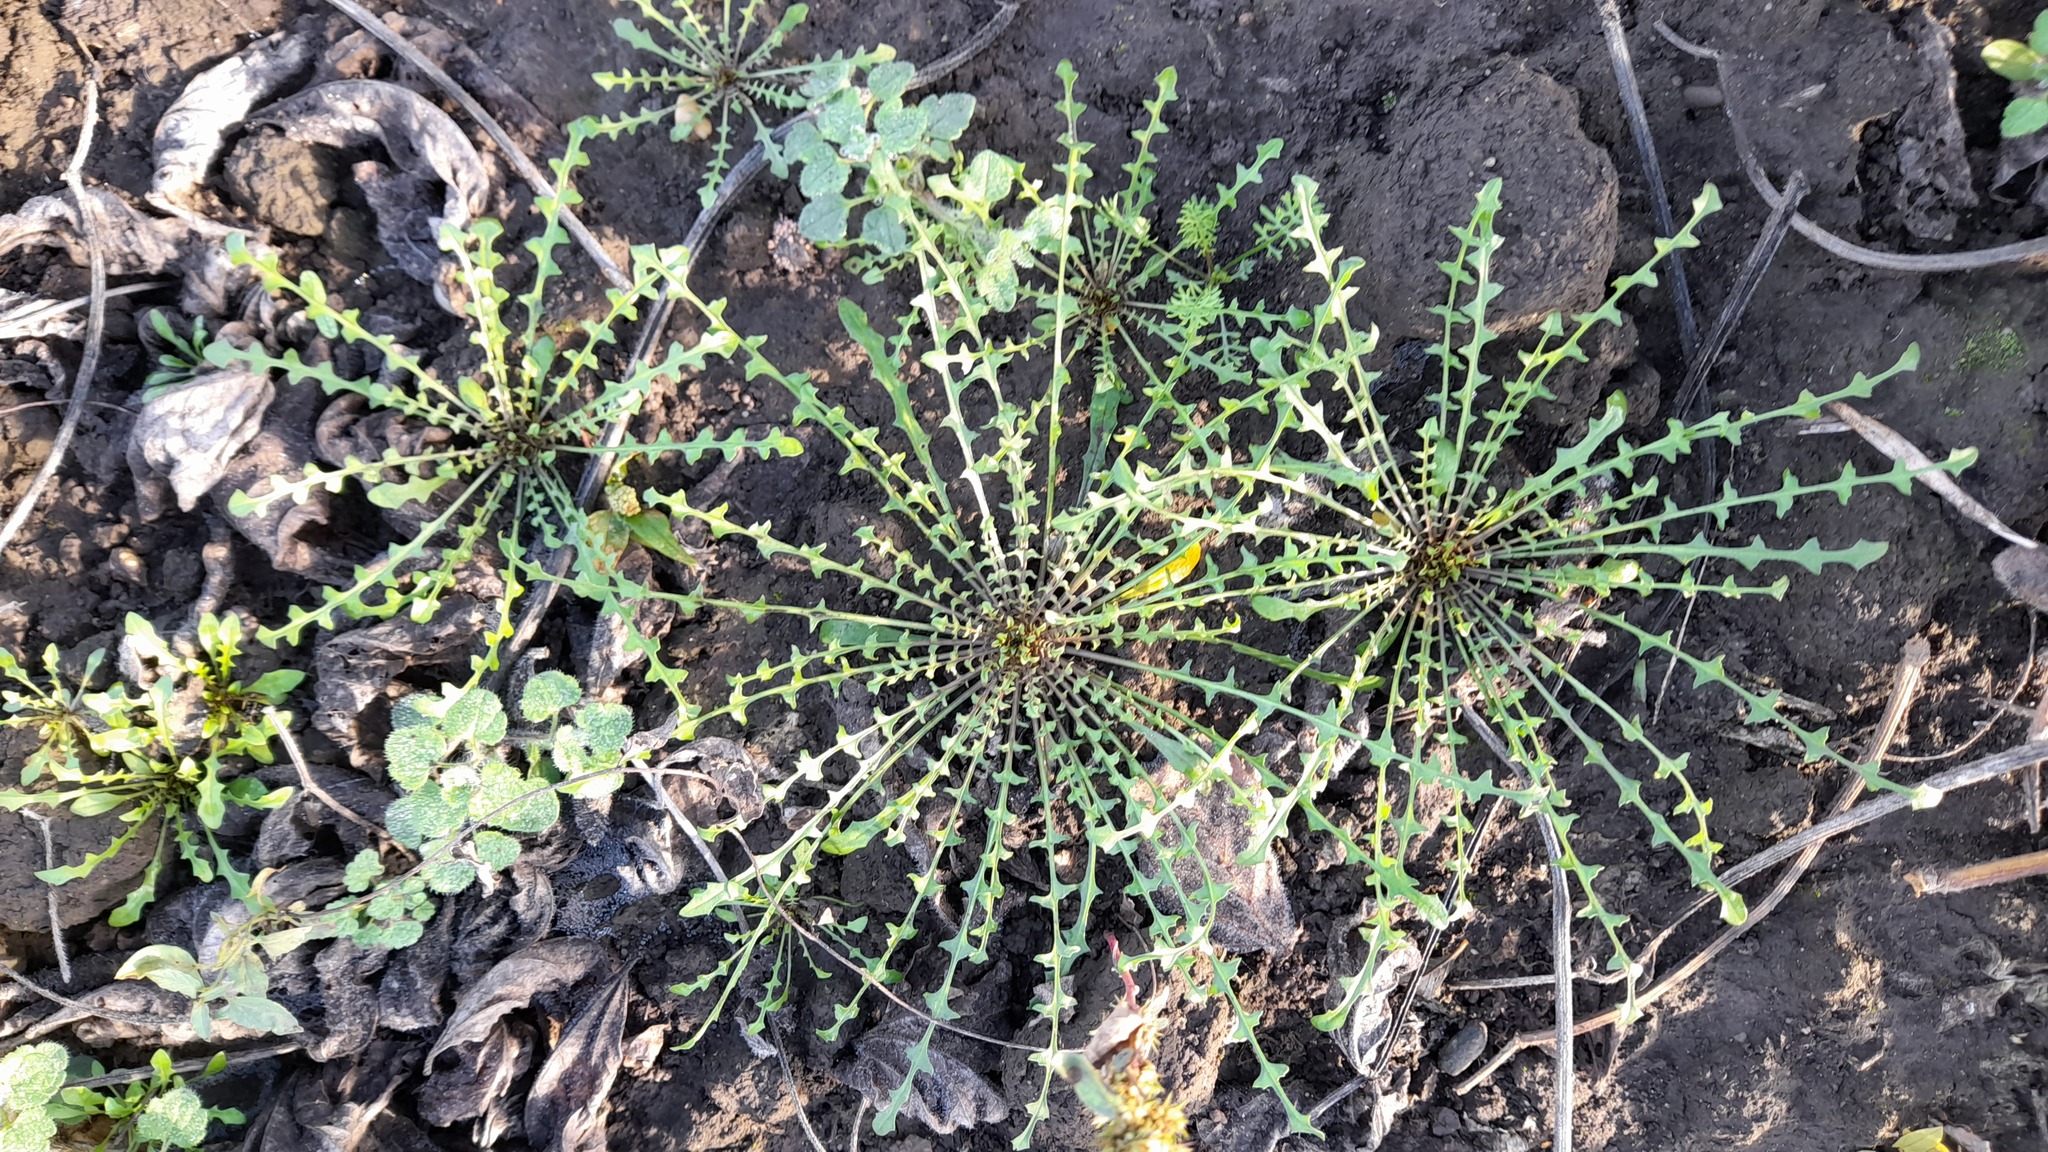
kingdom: Plantae
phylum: Tracheophyta
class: Magnoliopsida
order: Brassicales
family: Brassicaceae
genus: Capsella
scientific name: Capsella bursa-pastoris
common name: Shepherd's purse
